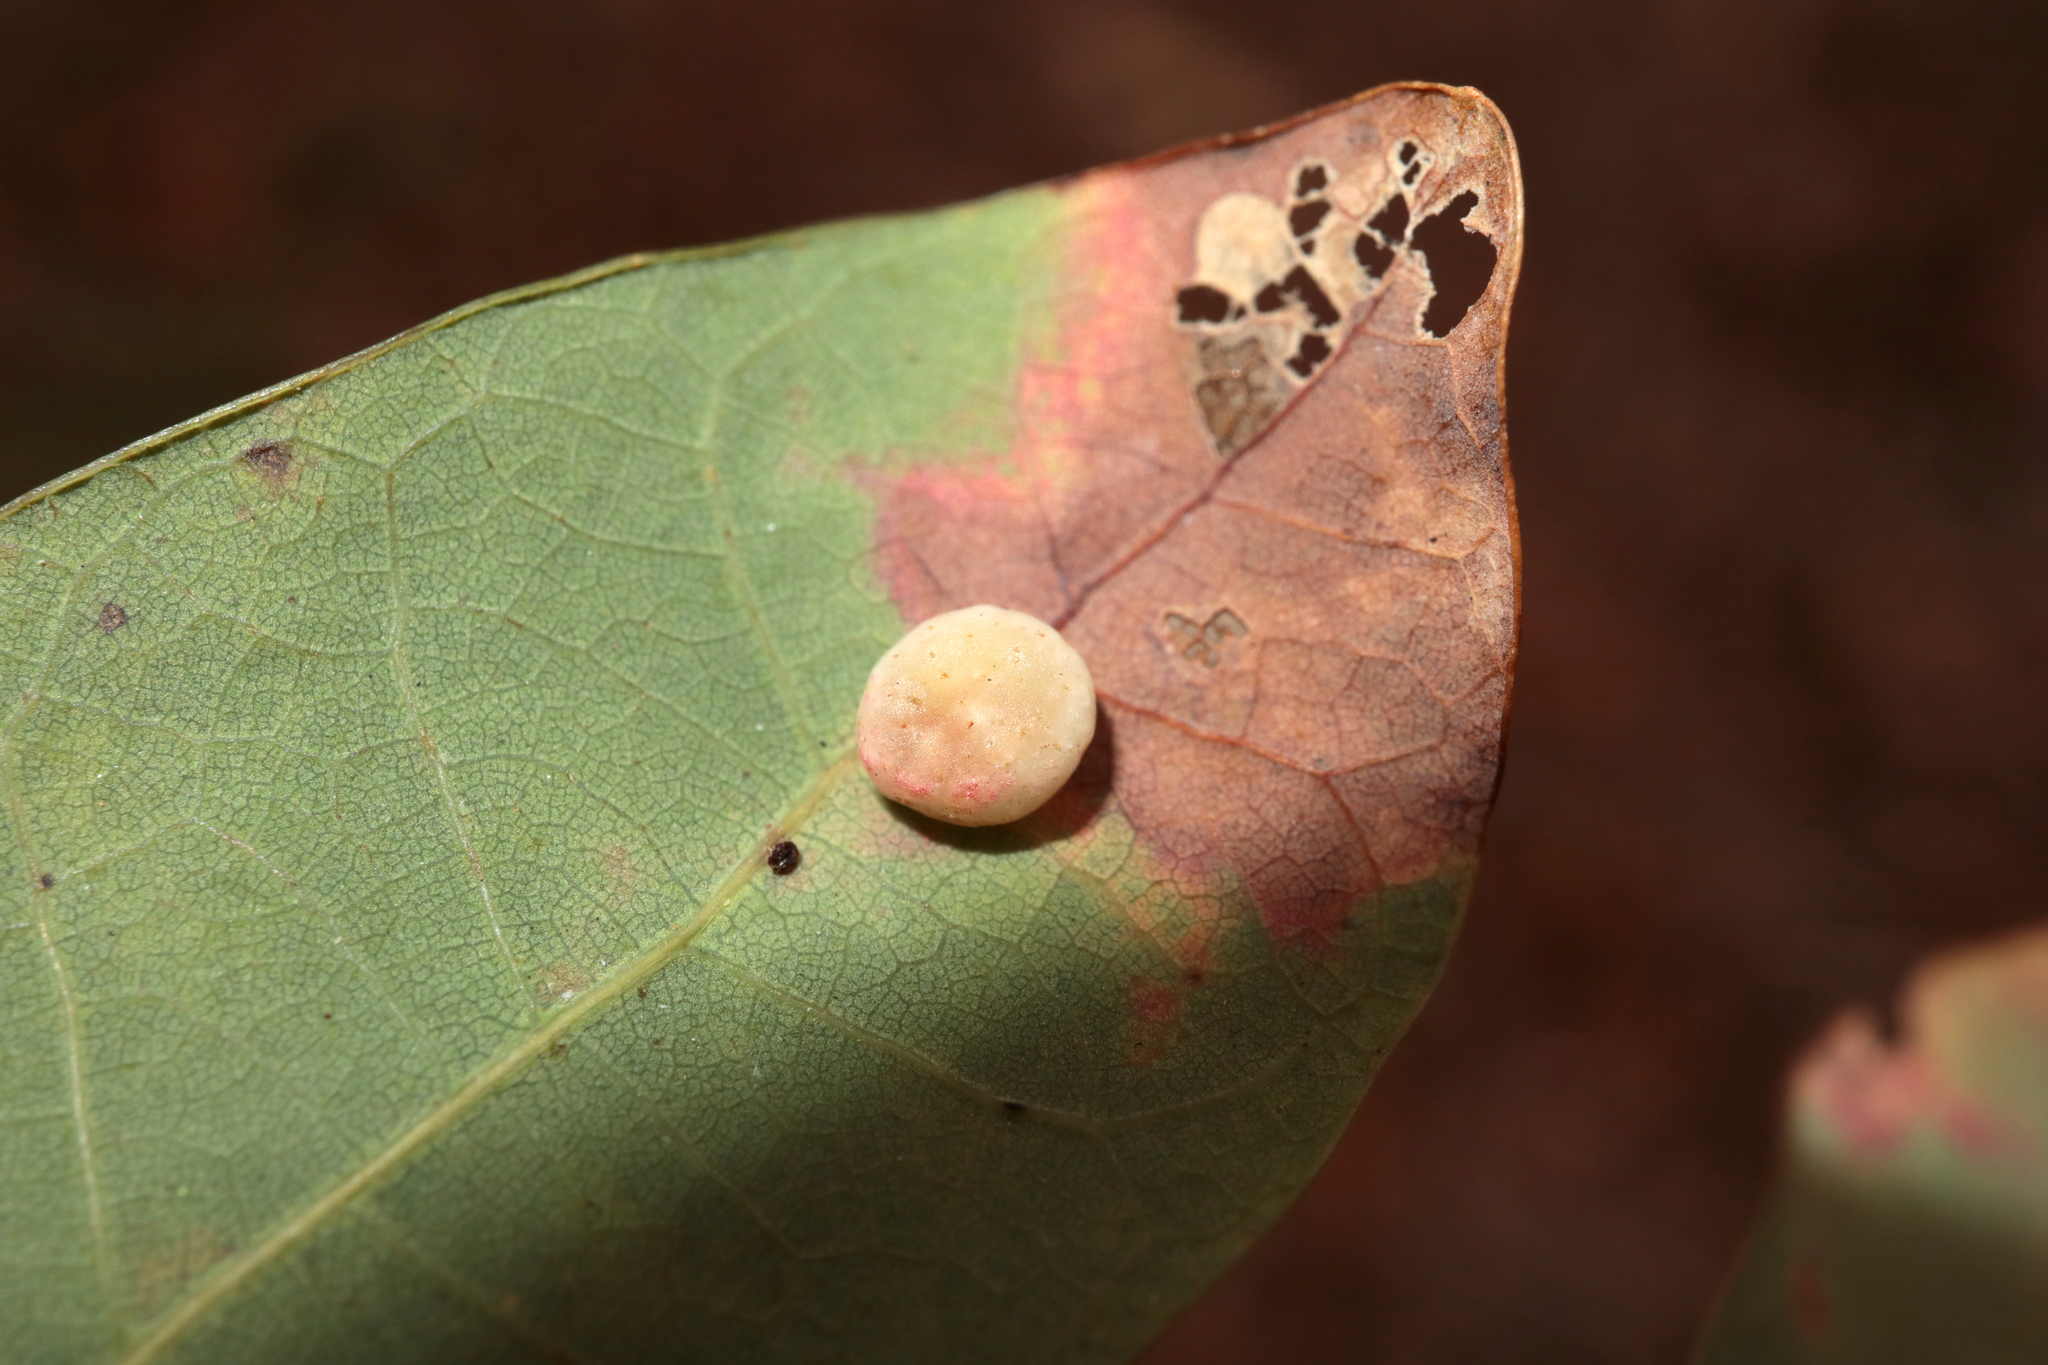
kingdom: Animalia
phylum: Arthropoda
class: Insecta
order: Hymenoptera
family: Cynipidae
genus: Phylloteras
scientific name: Phylloteras
